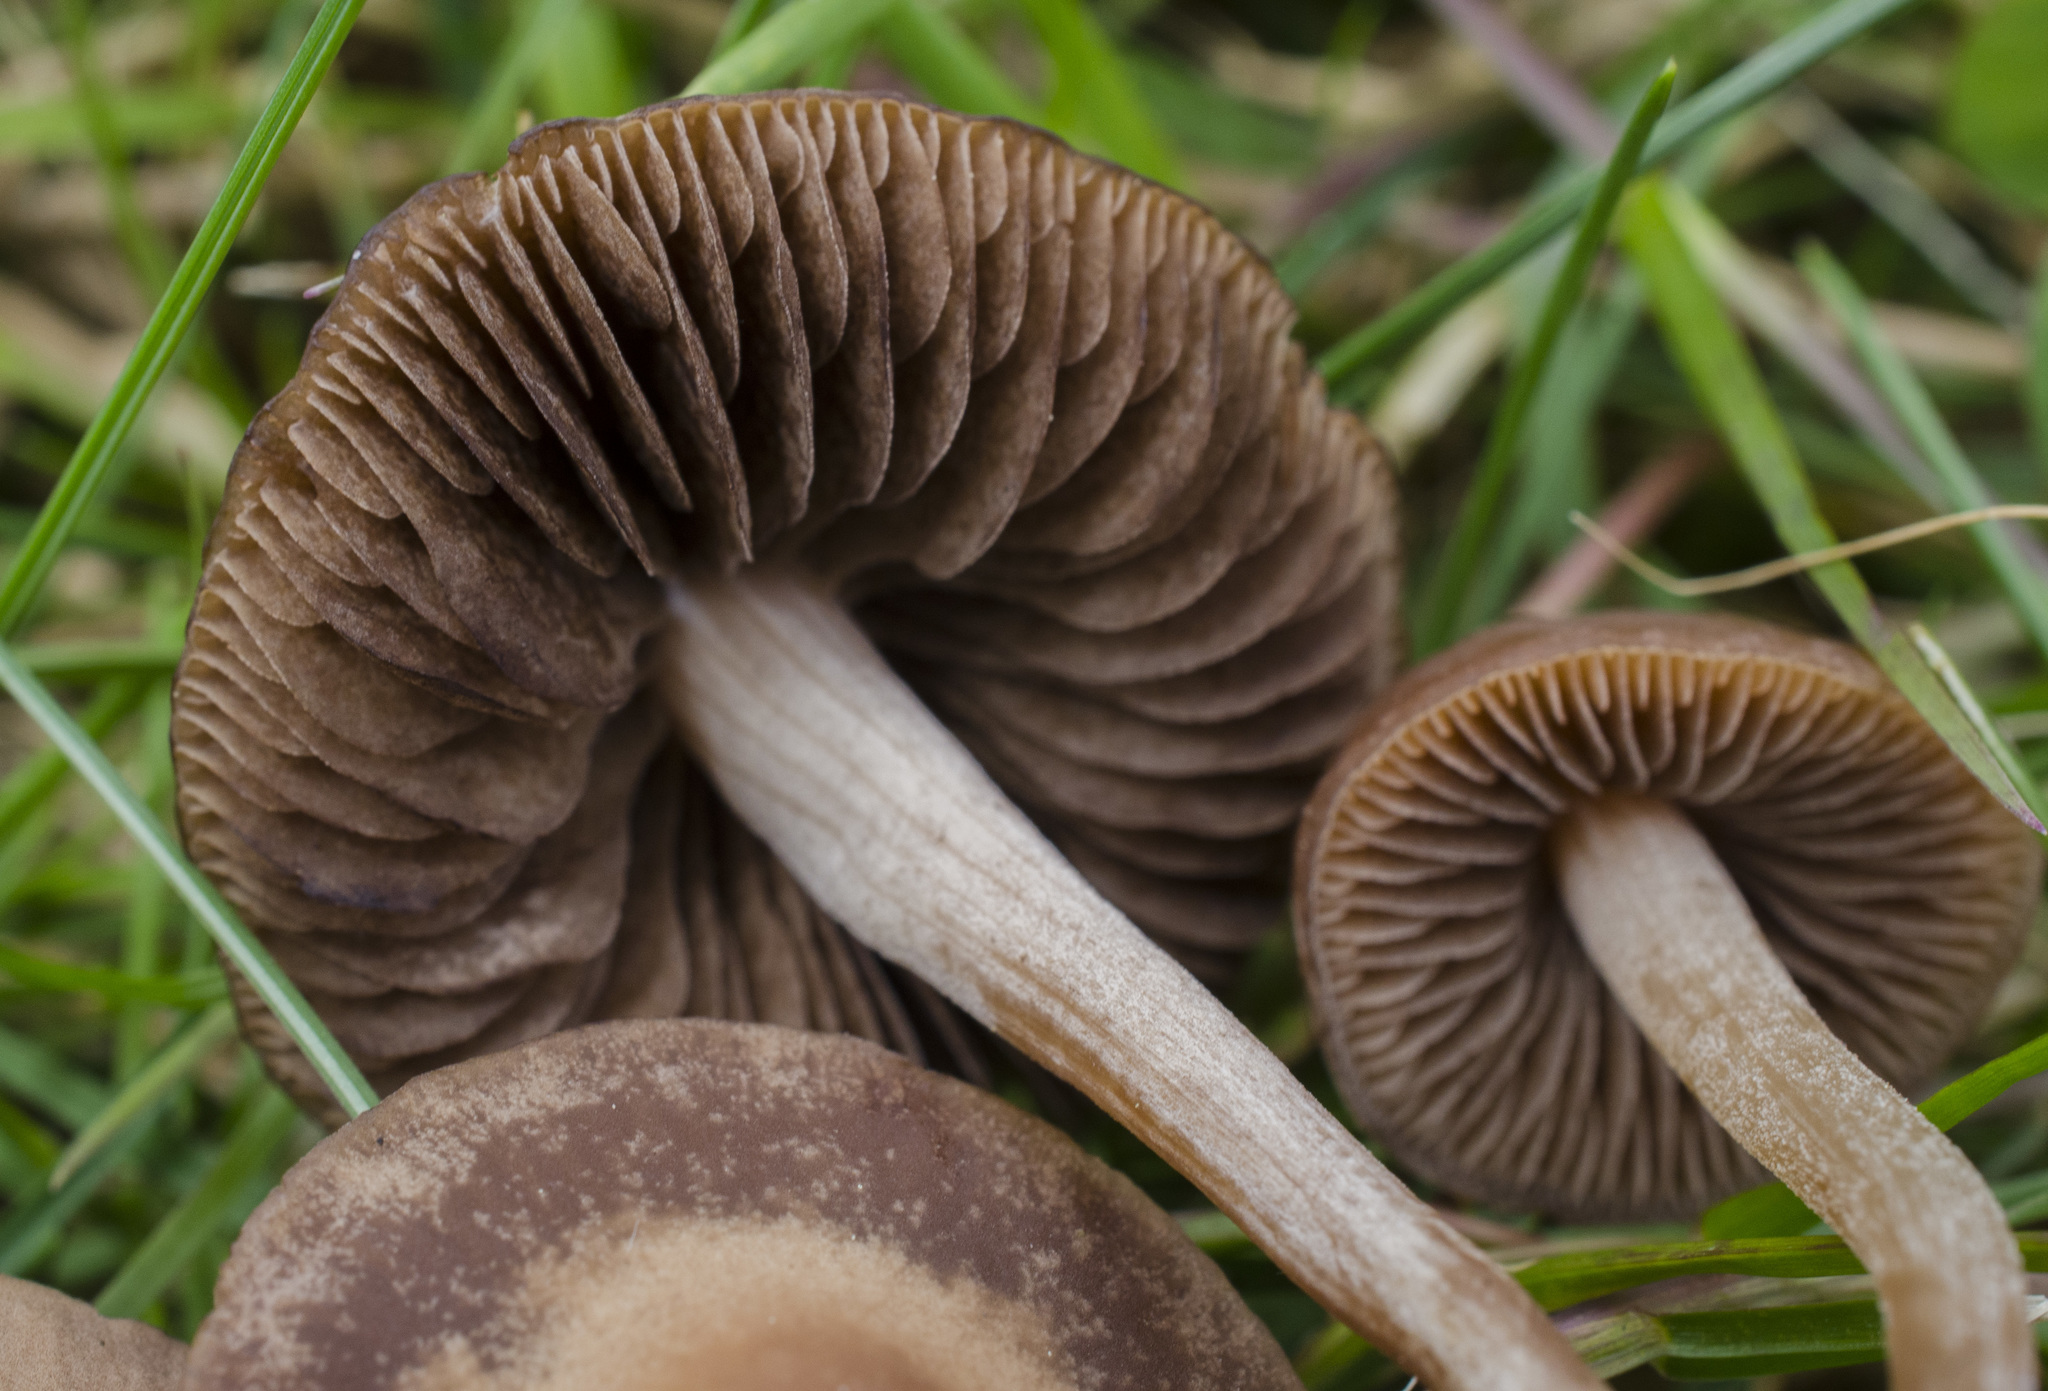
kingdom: Fungi
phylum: Basidiomycota
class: Agaricomycetes
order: Agaricales
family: Bolbitiaceae
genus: Panaeolina
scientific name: Panaeolina foenisecii
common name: Brown hay cap
